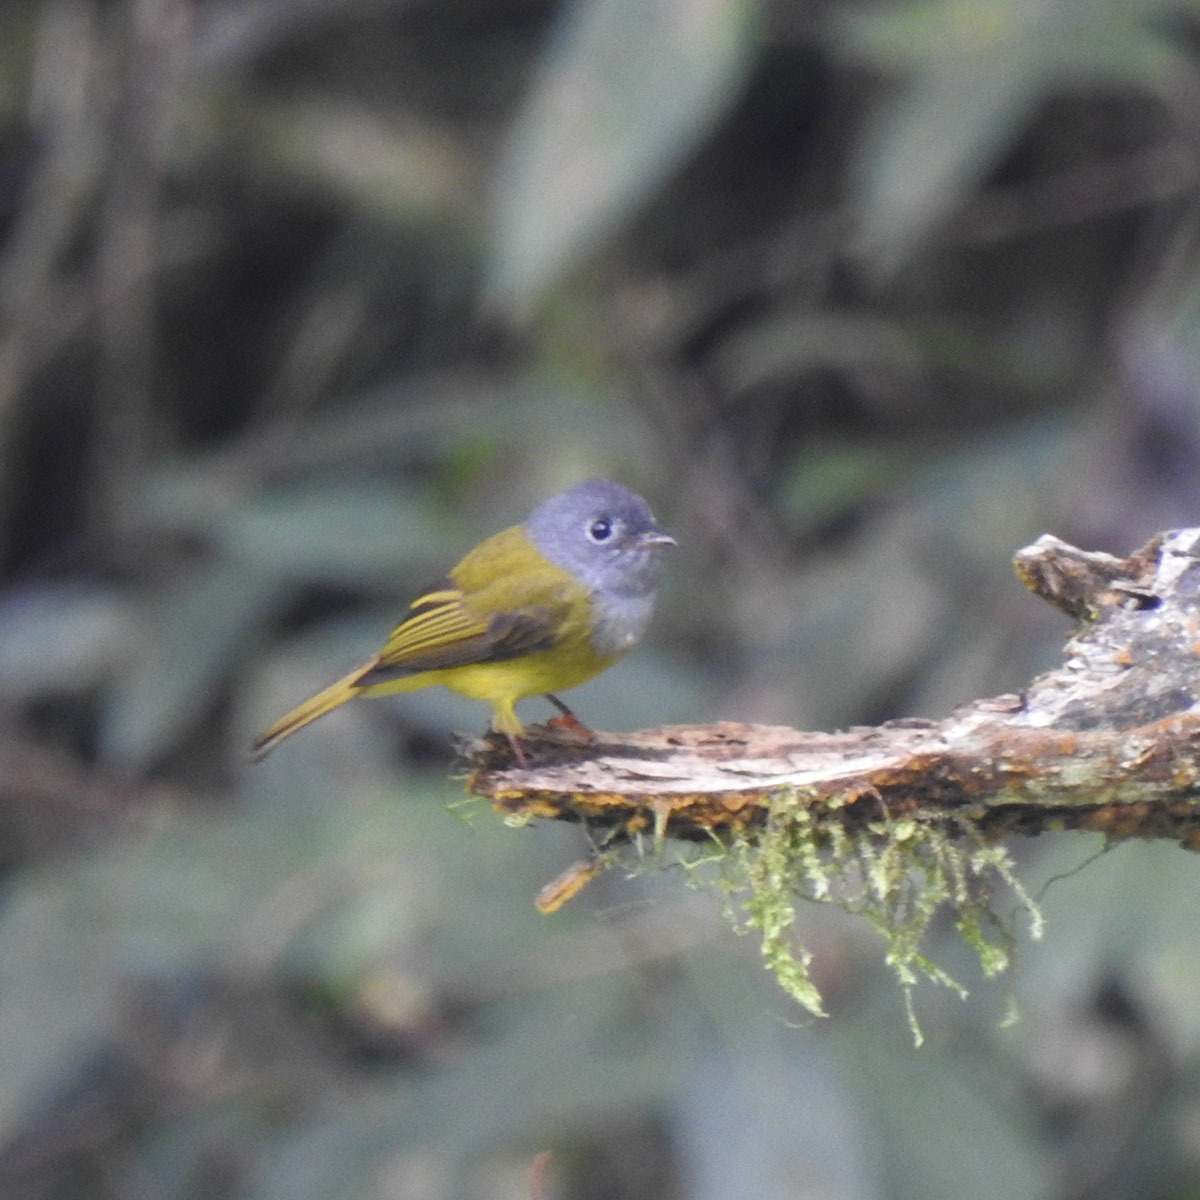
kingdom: Animalia
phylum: Chordata
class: Aves
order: Passeriformes
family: Stenostiridae
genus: Culicicapa
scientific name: Culicicapa ceylonensis
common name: Grey-headed canary-flycatcher
